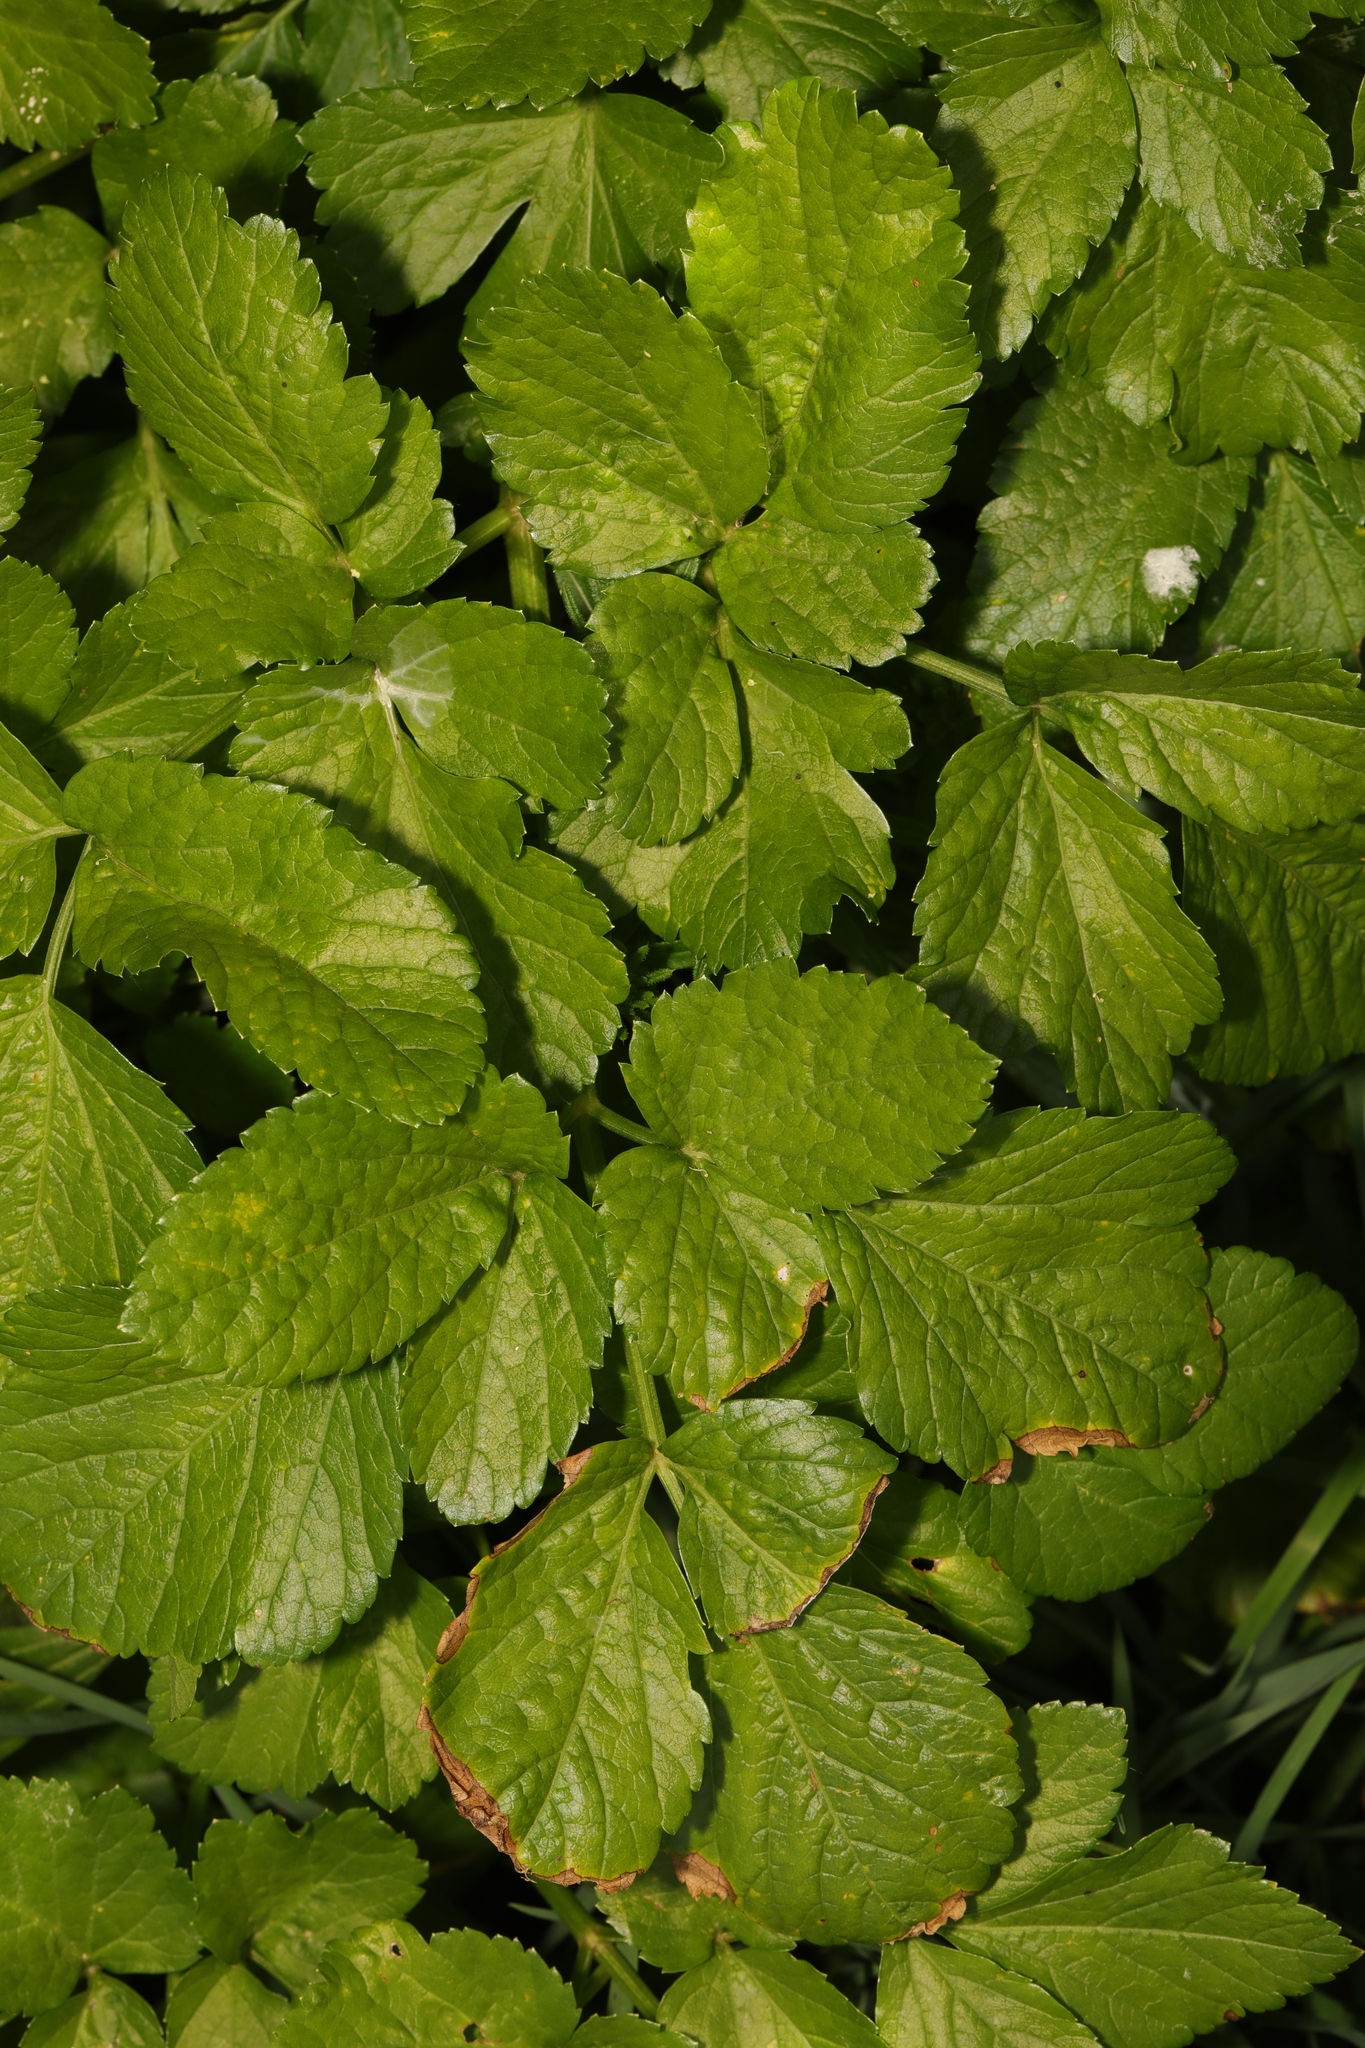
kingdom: Plantae
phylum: Tracheophyta
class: Magnoliopsida
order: Apiales
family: Apiaceae
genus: Smyrnium
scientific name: Smyrnium olusatrum
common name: Alexanders
